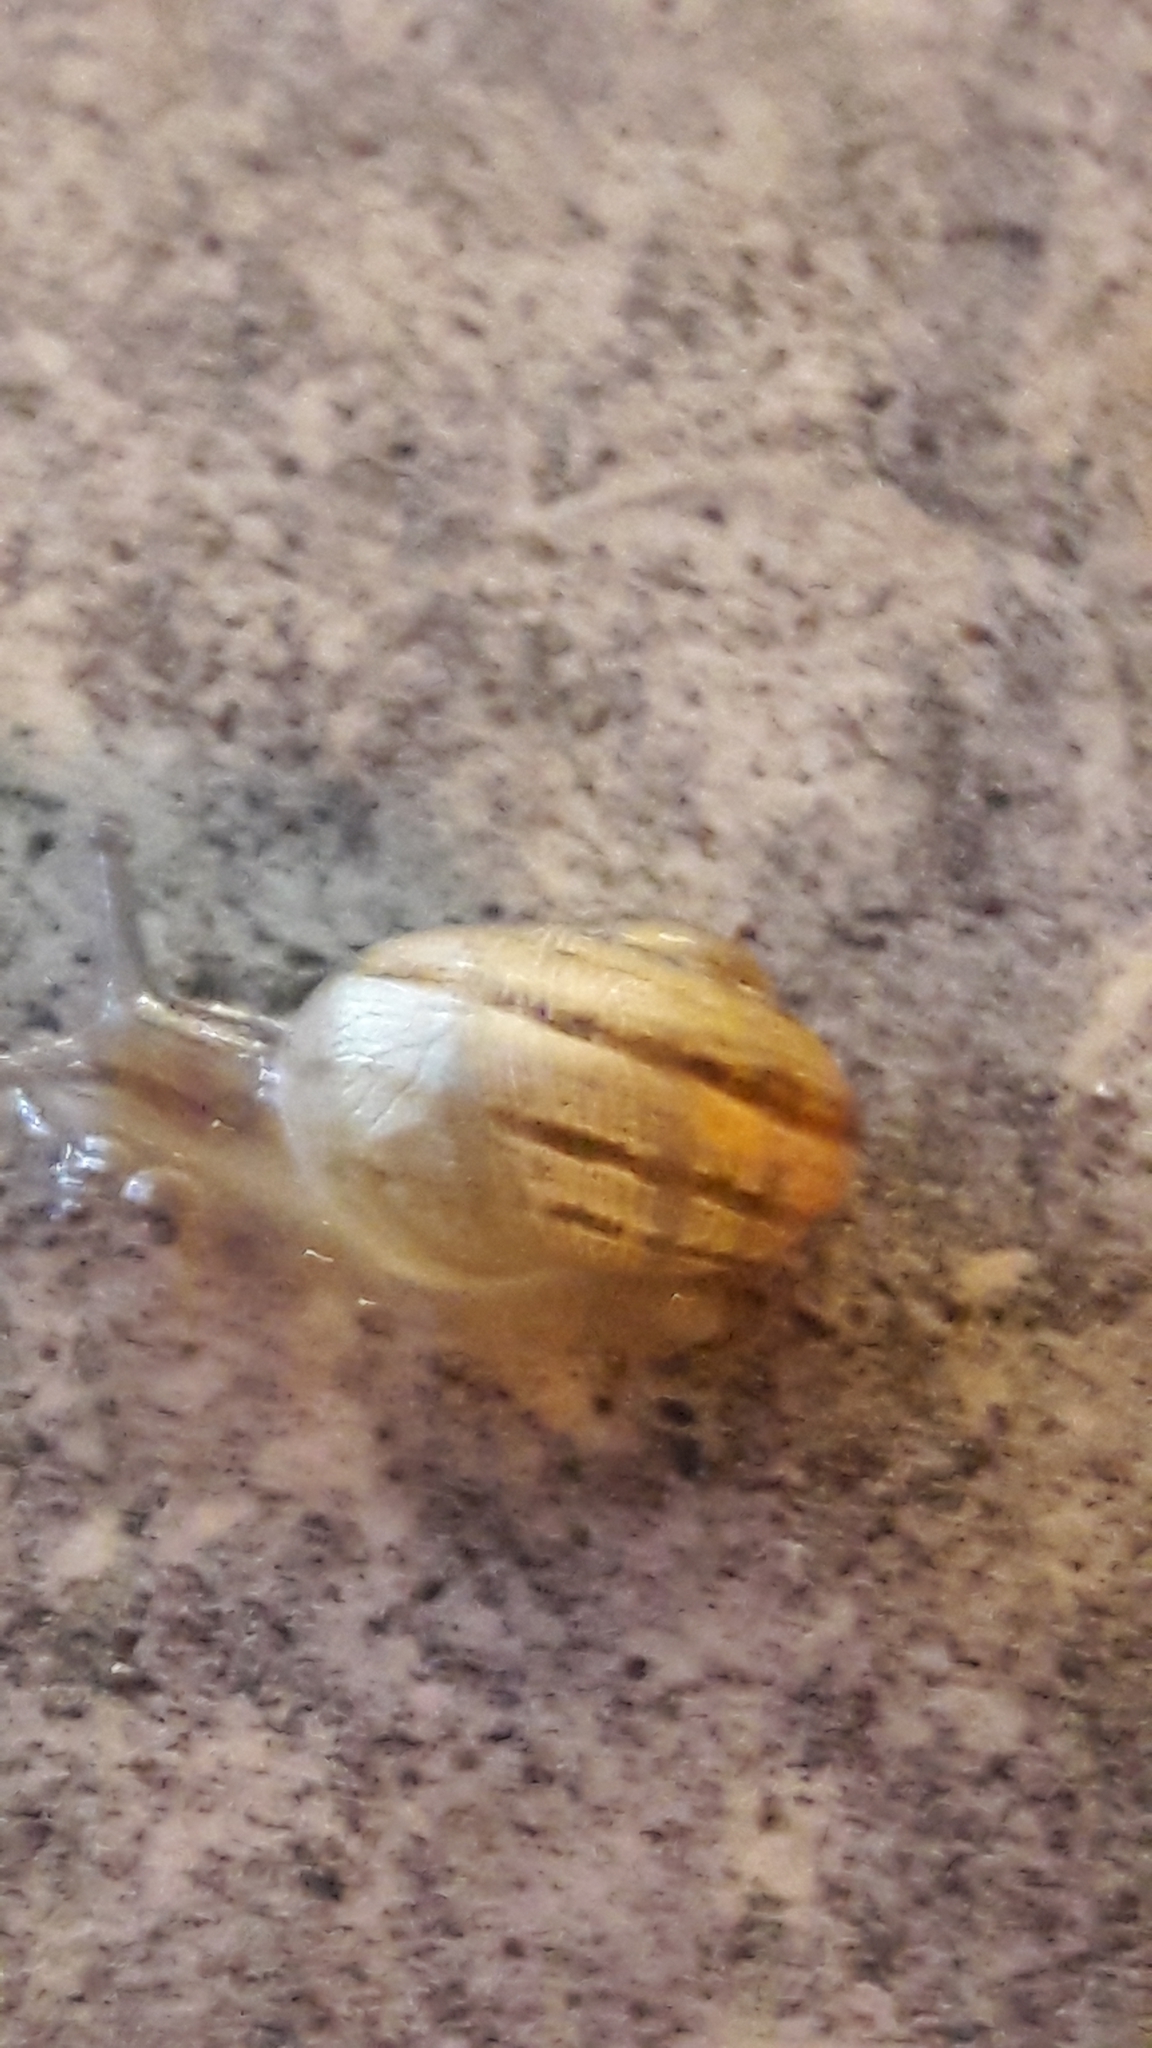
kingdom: Animalia
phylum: Mollusca
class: Gastropoda
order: Stylommatophora
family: Helicidae
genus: Cornu
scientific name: Cornu aspersum
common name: Brown garden snail
